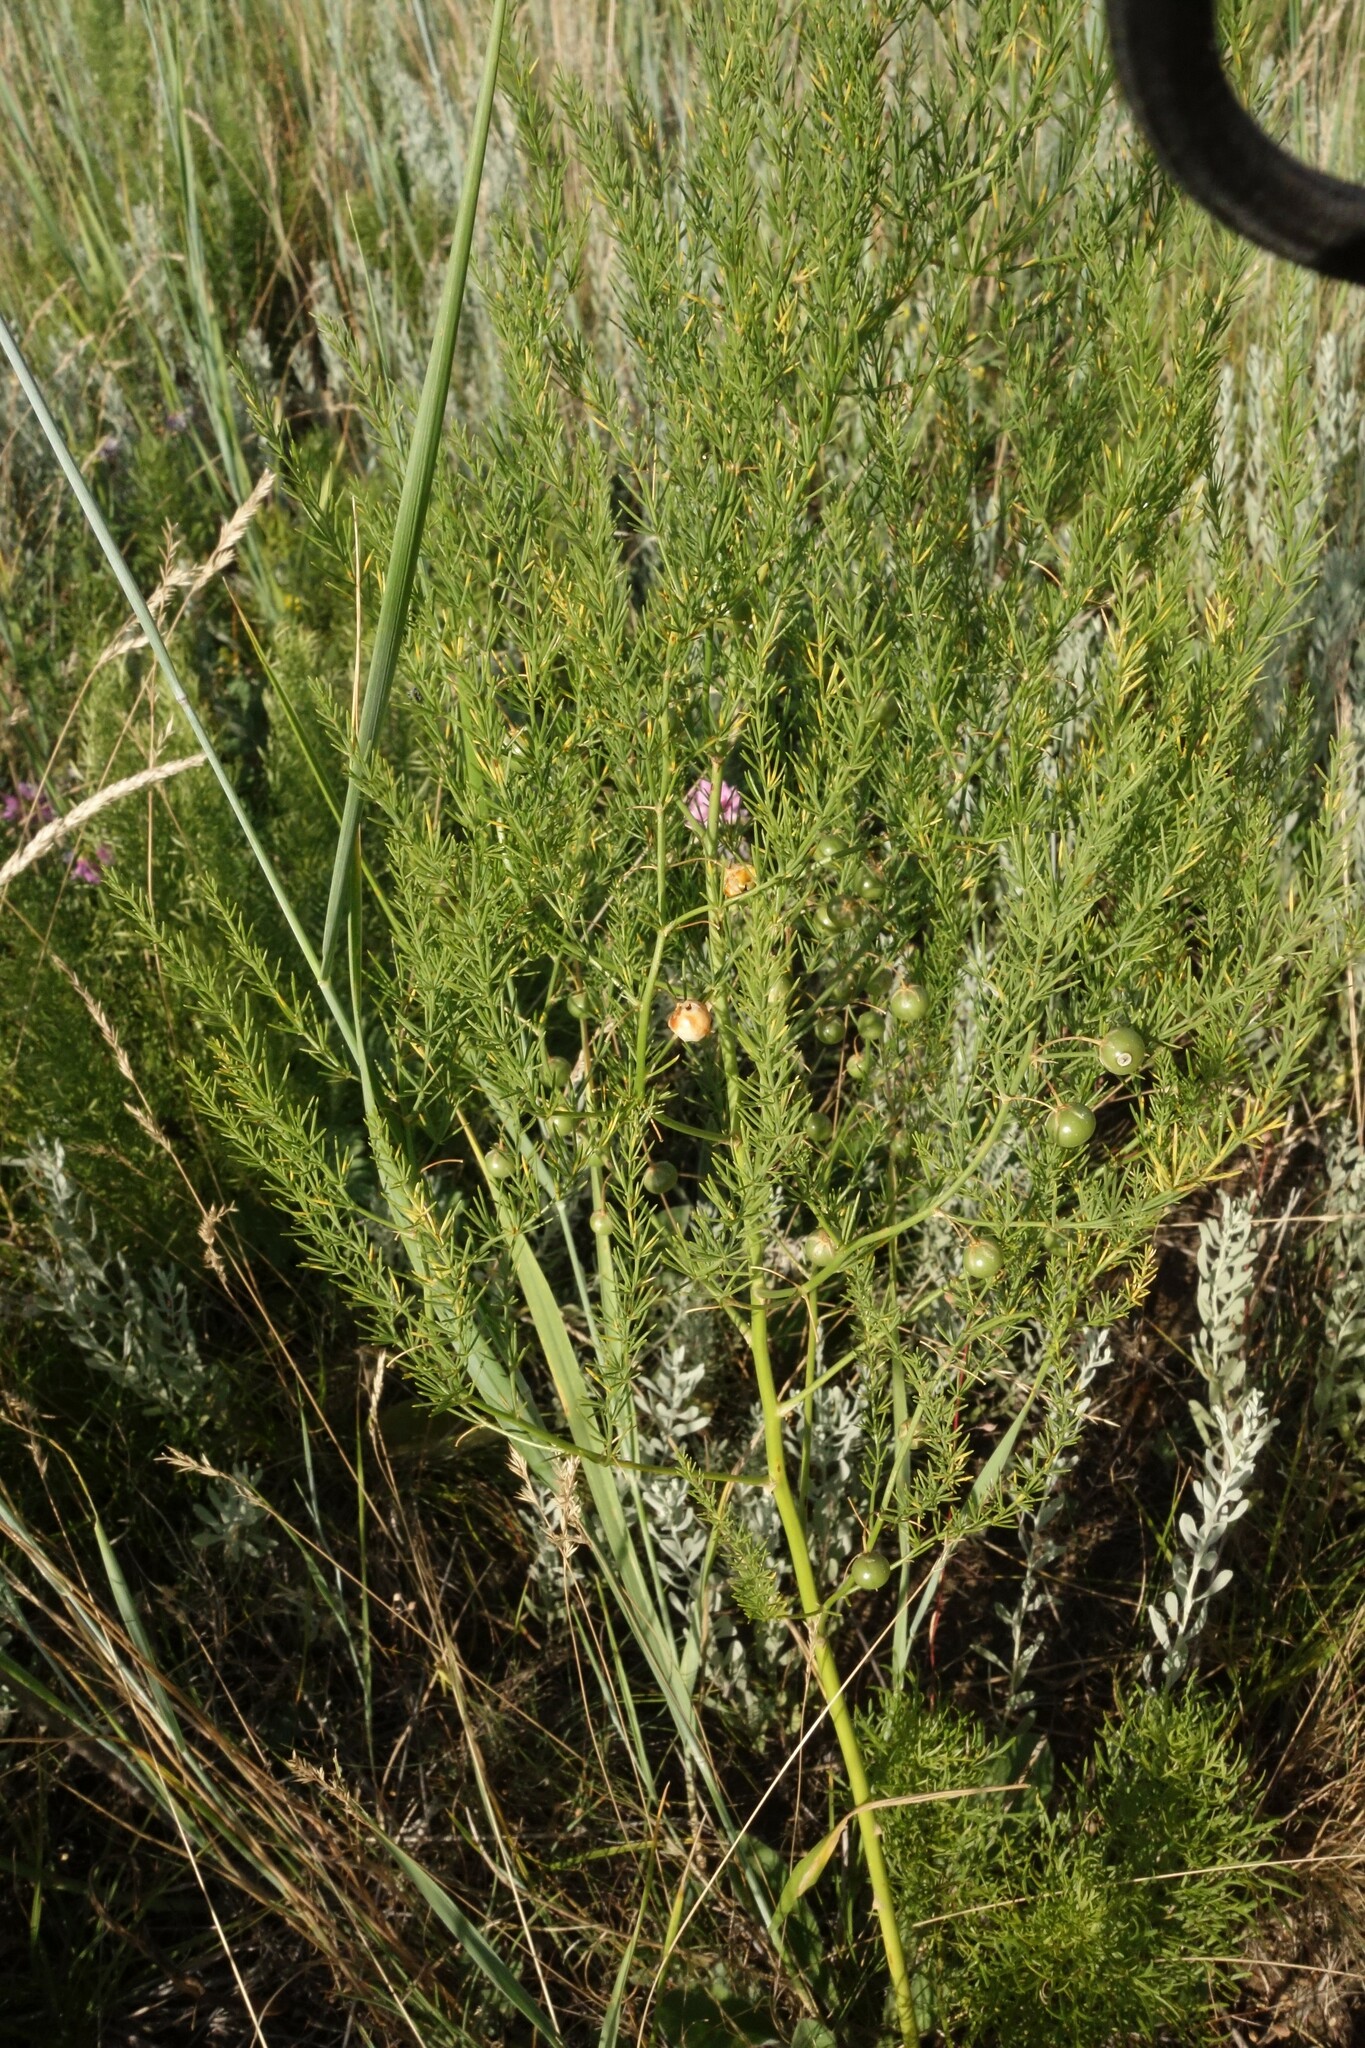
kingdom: Plantae
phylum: Tracheophyta
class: Liliopsida
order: Asparagales
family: Asparagaceae
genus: Asparagus
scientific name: Asparagus officinalis
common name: Garden asparagus
